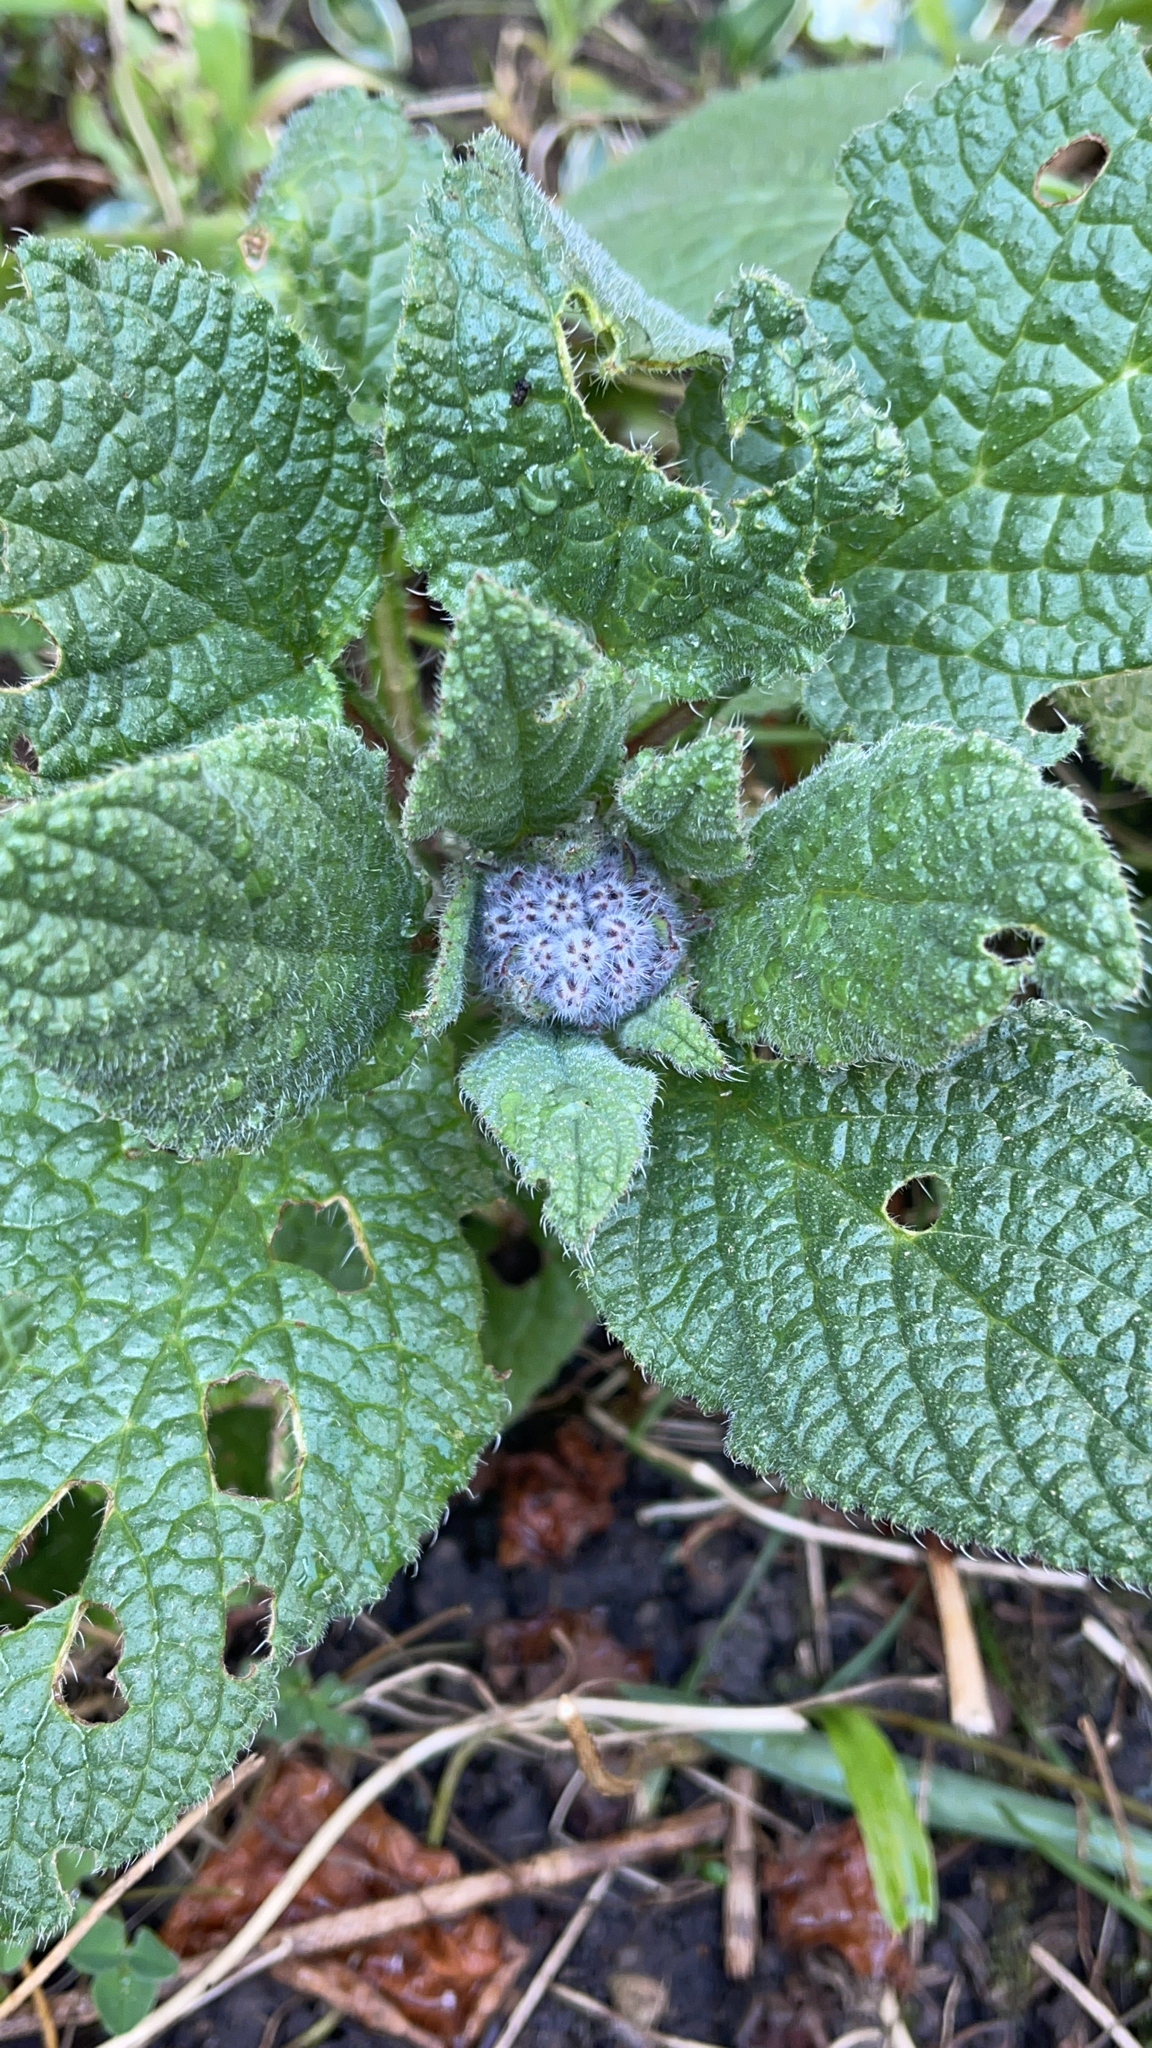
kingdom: Plantae
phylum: Tracheophyta
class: Magnoliopsida
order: Boraginales
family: Boraginaceae
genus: Borago
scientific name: Borago officinalis
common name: Borage
